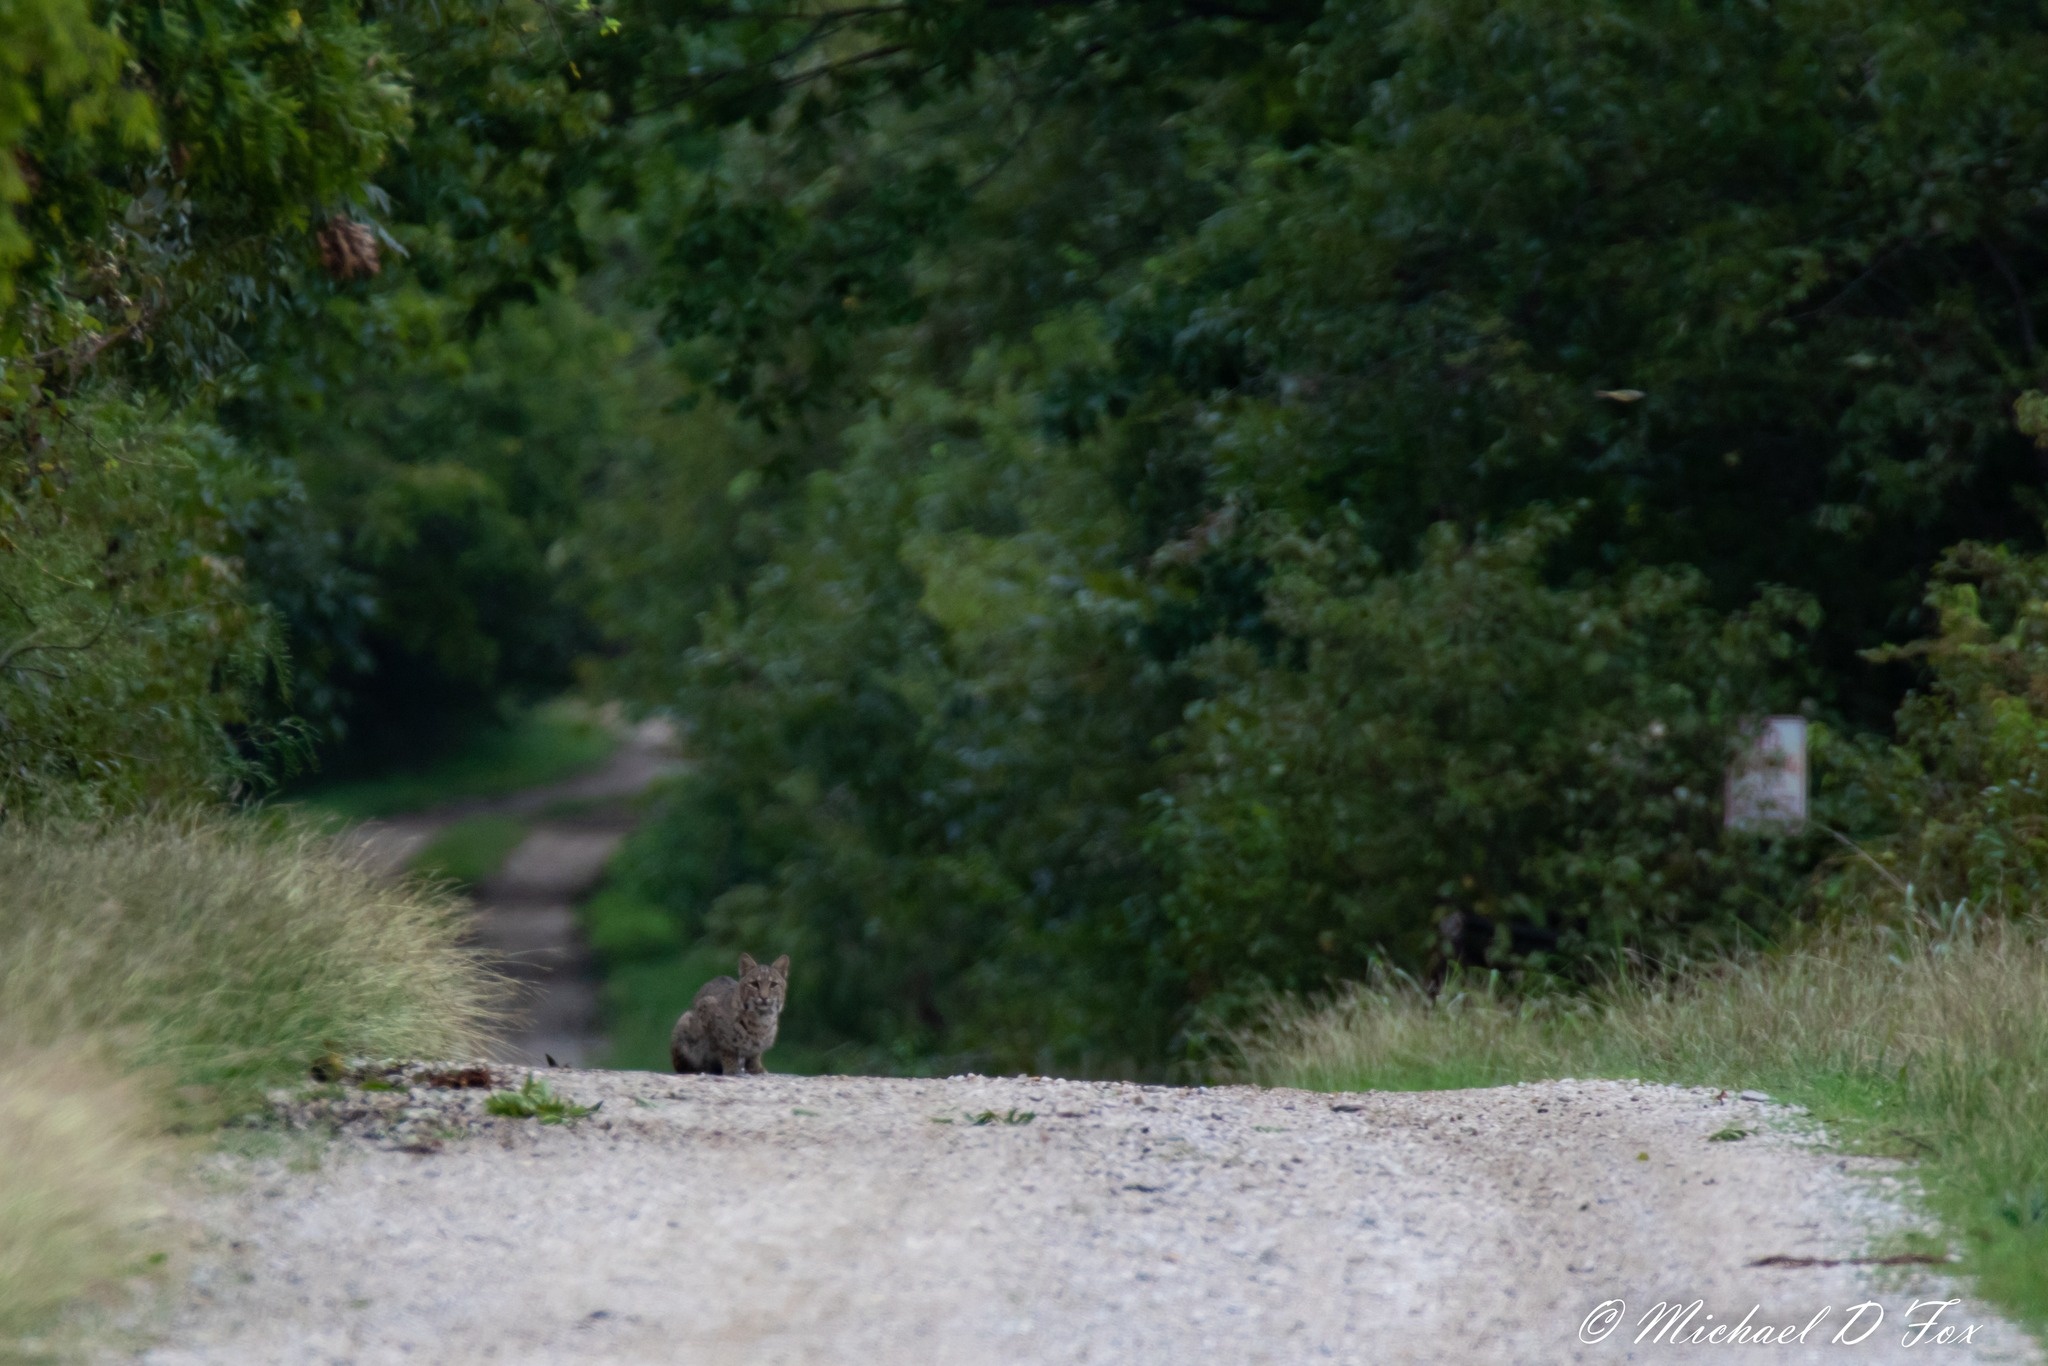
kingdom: Animalia
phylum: Chordata
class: Mammalia
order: Carnivora
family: Felidae
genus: Lynx
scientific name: Lynx rufus
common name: Bobcat
